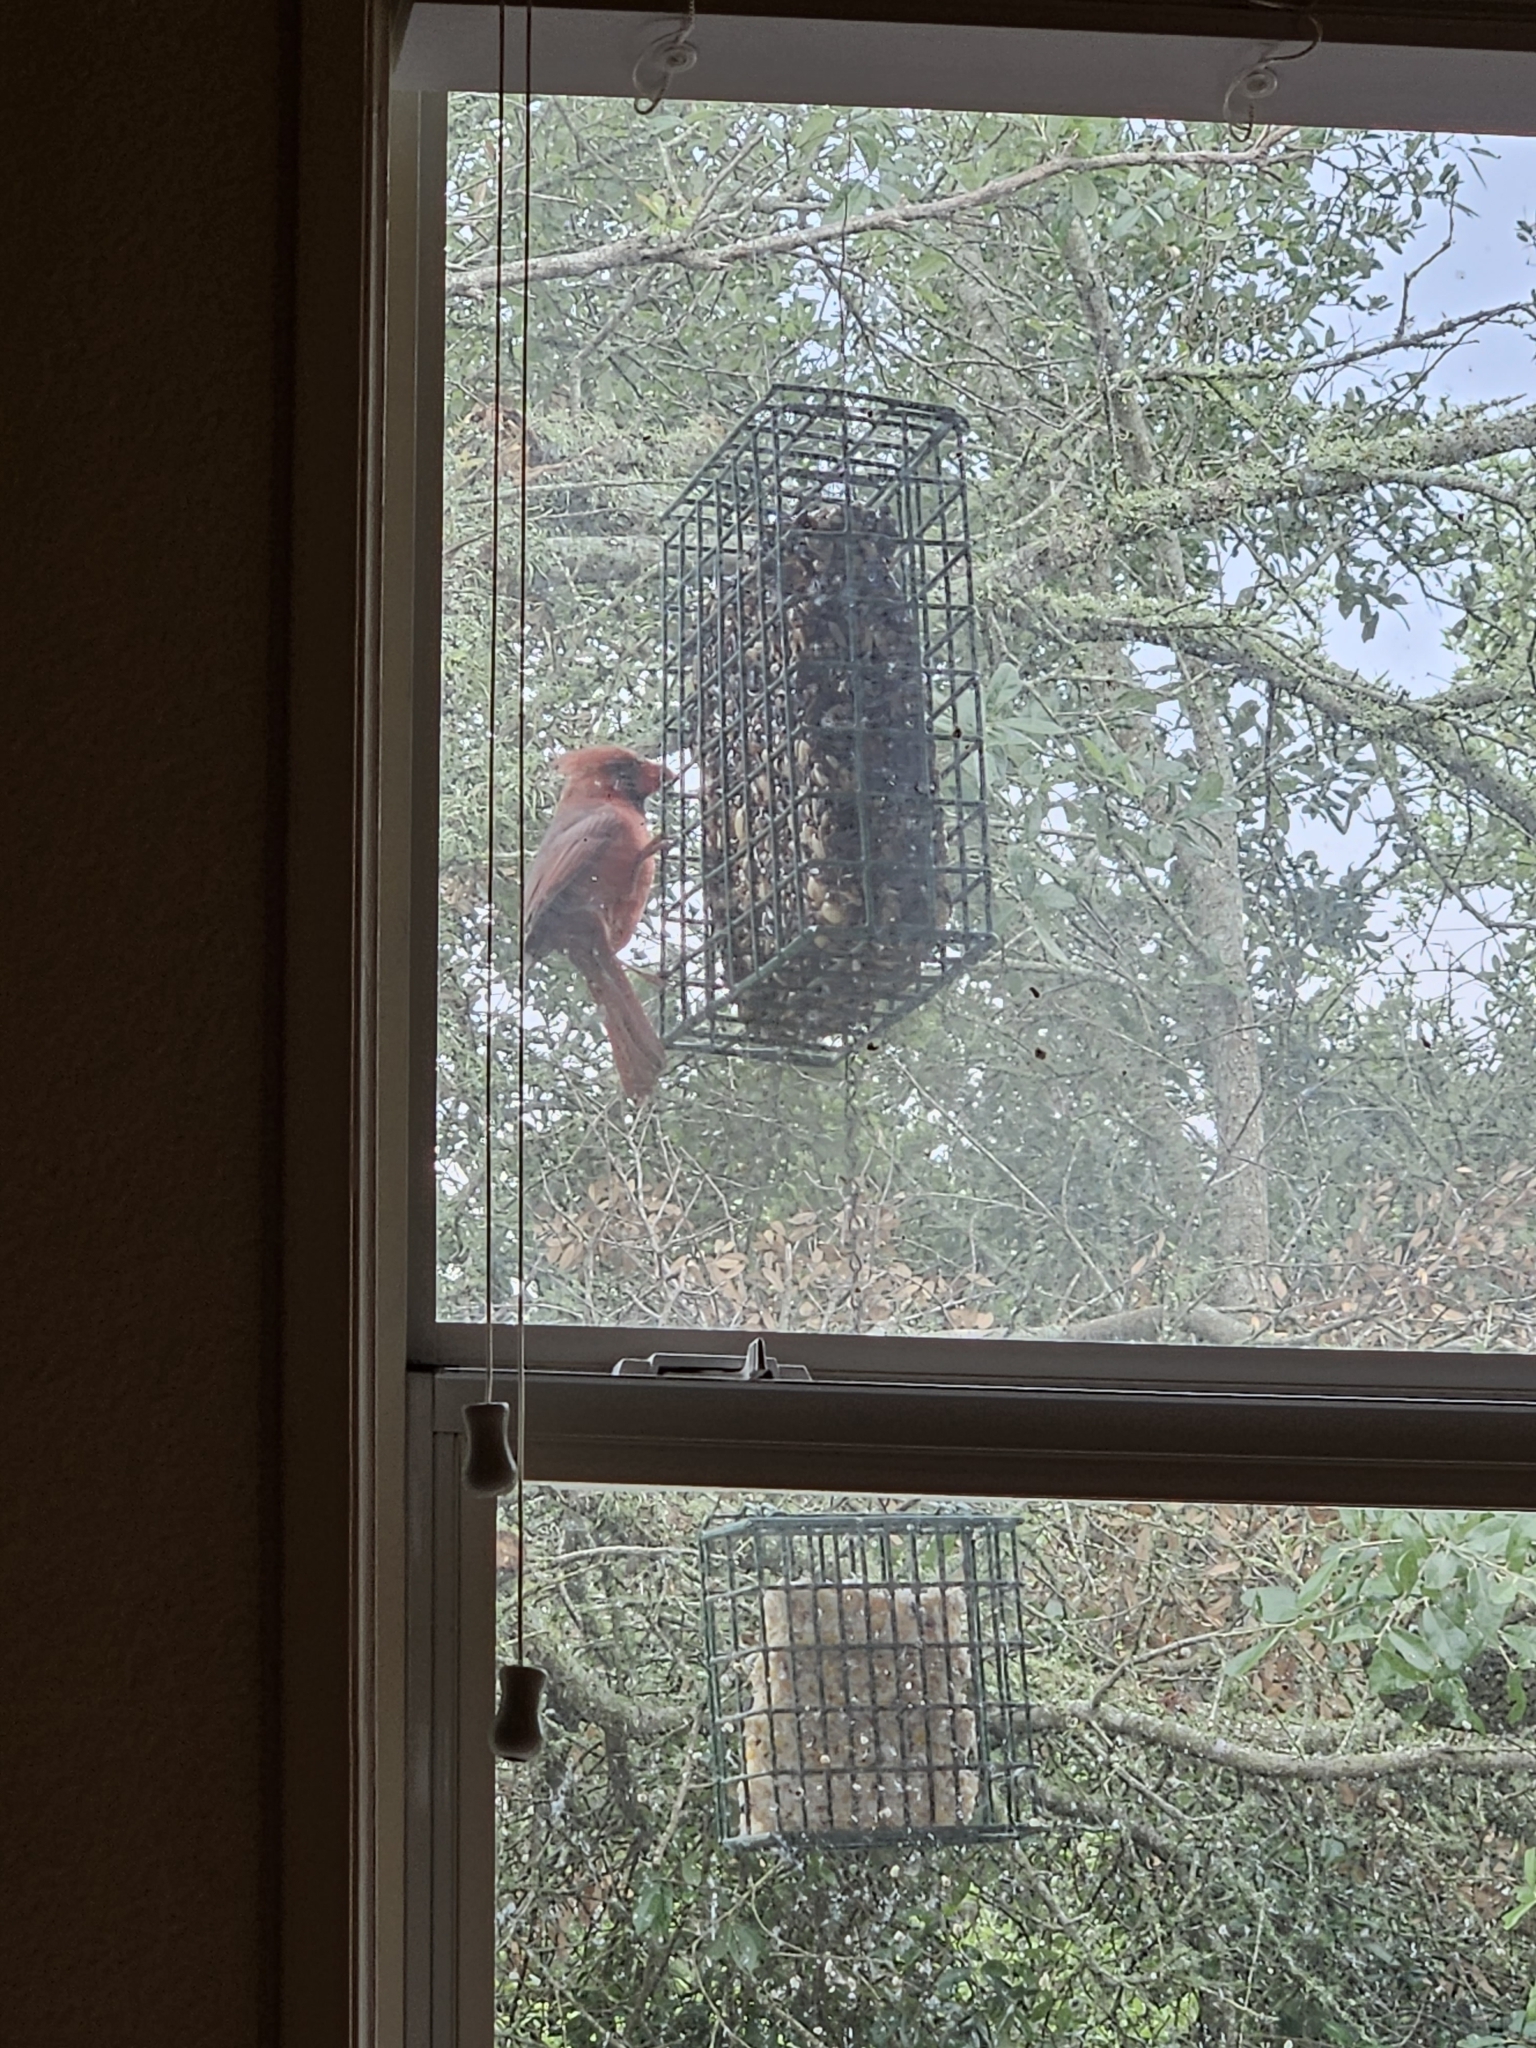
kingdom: Animalia
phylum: Chordata
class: Aves
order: Passeriformes
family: Cardinalidae
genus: Cardinalis
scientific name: Cardinalis cardinalis
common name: Northern cardinal
